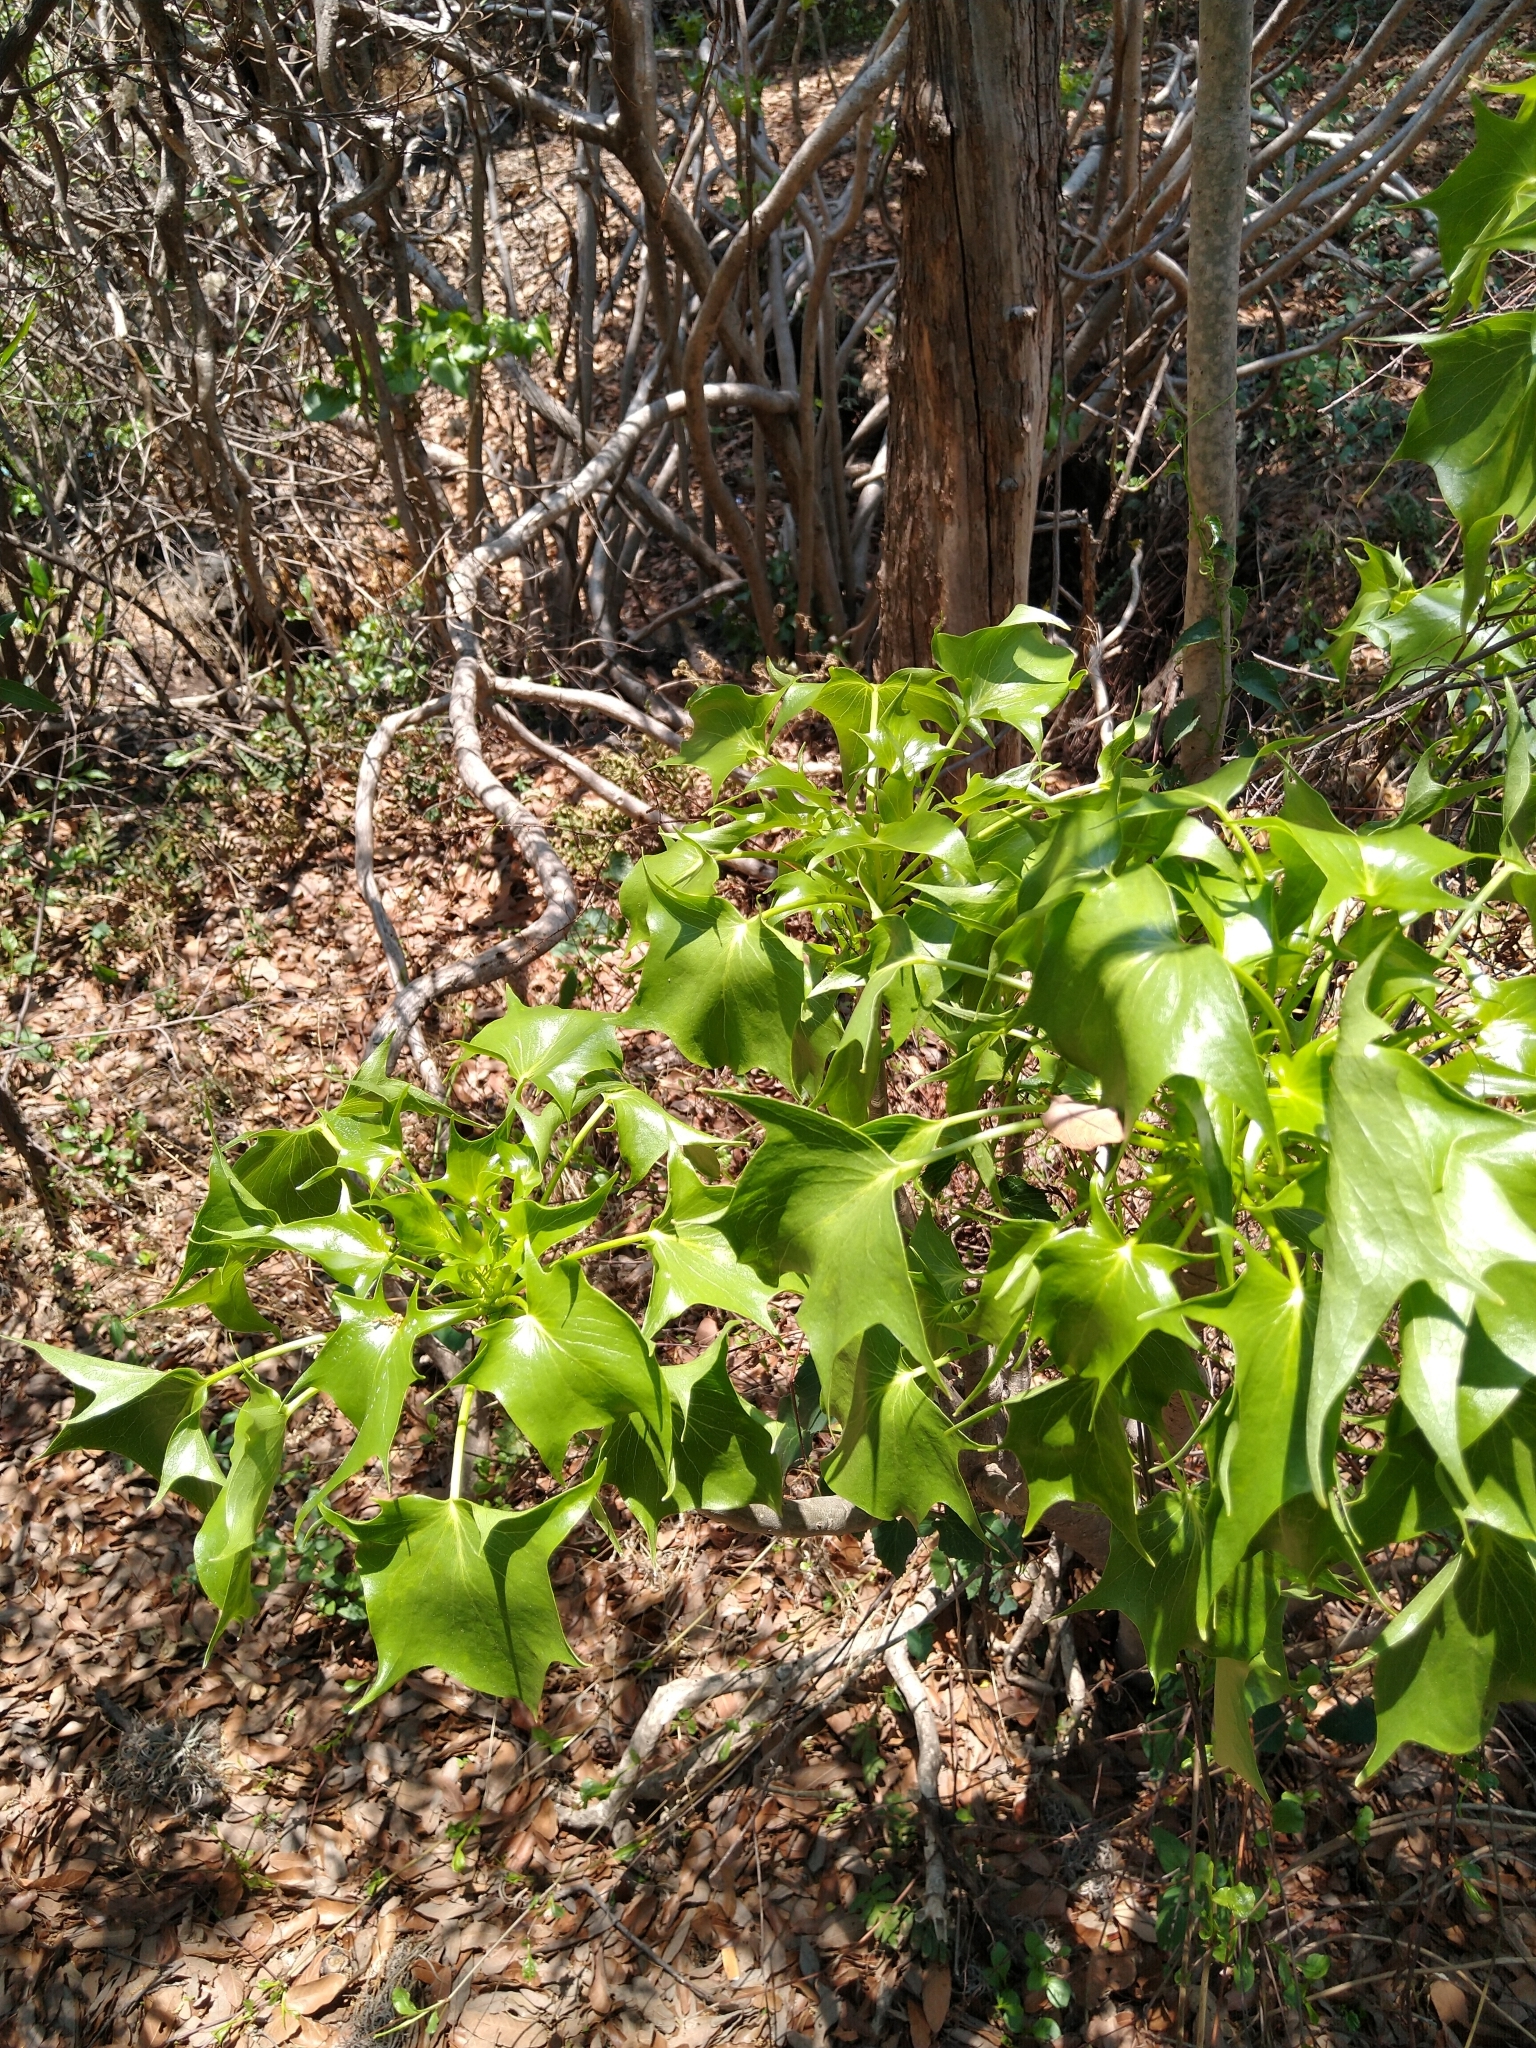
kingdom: Plantae
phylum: Tracheophyta
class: Magnoliopsida
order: Asterales
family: Asteraceae
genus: Pittocaulon
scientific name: Pittocaulon praecox
